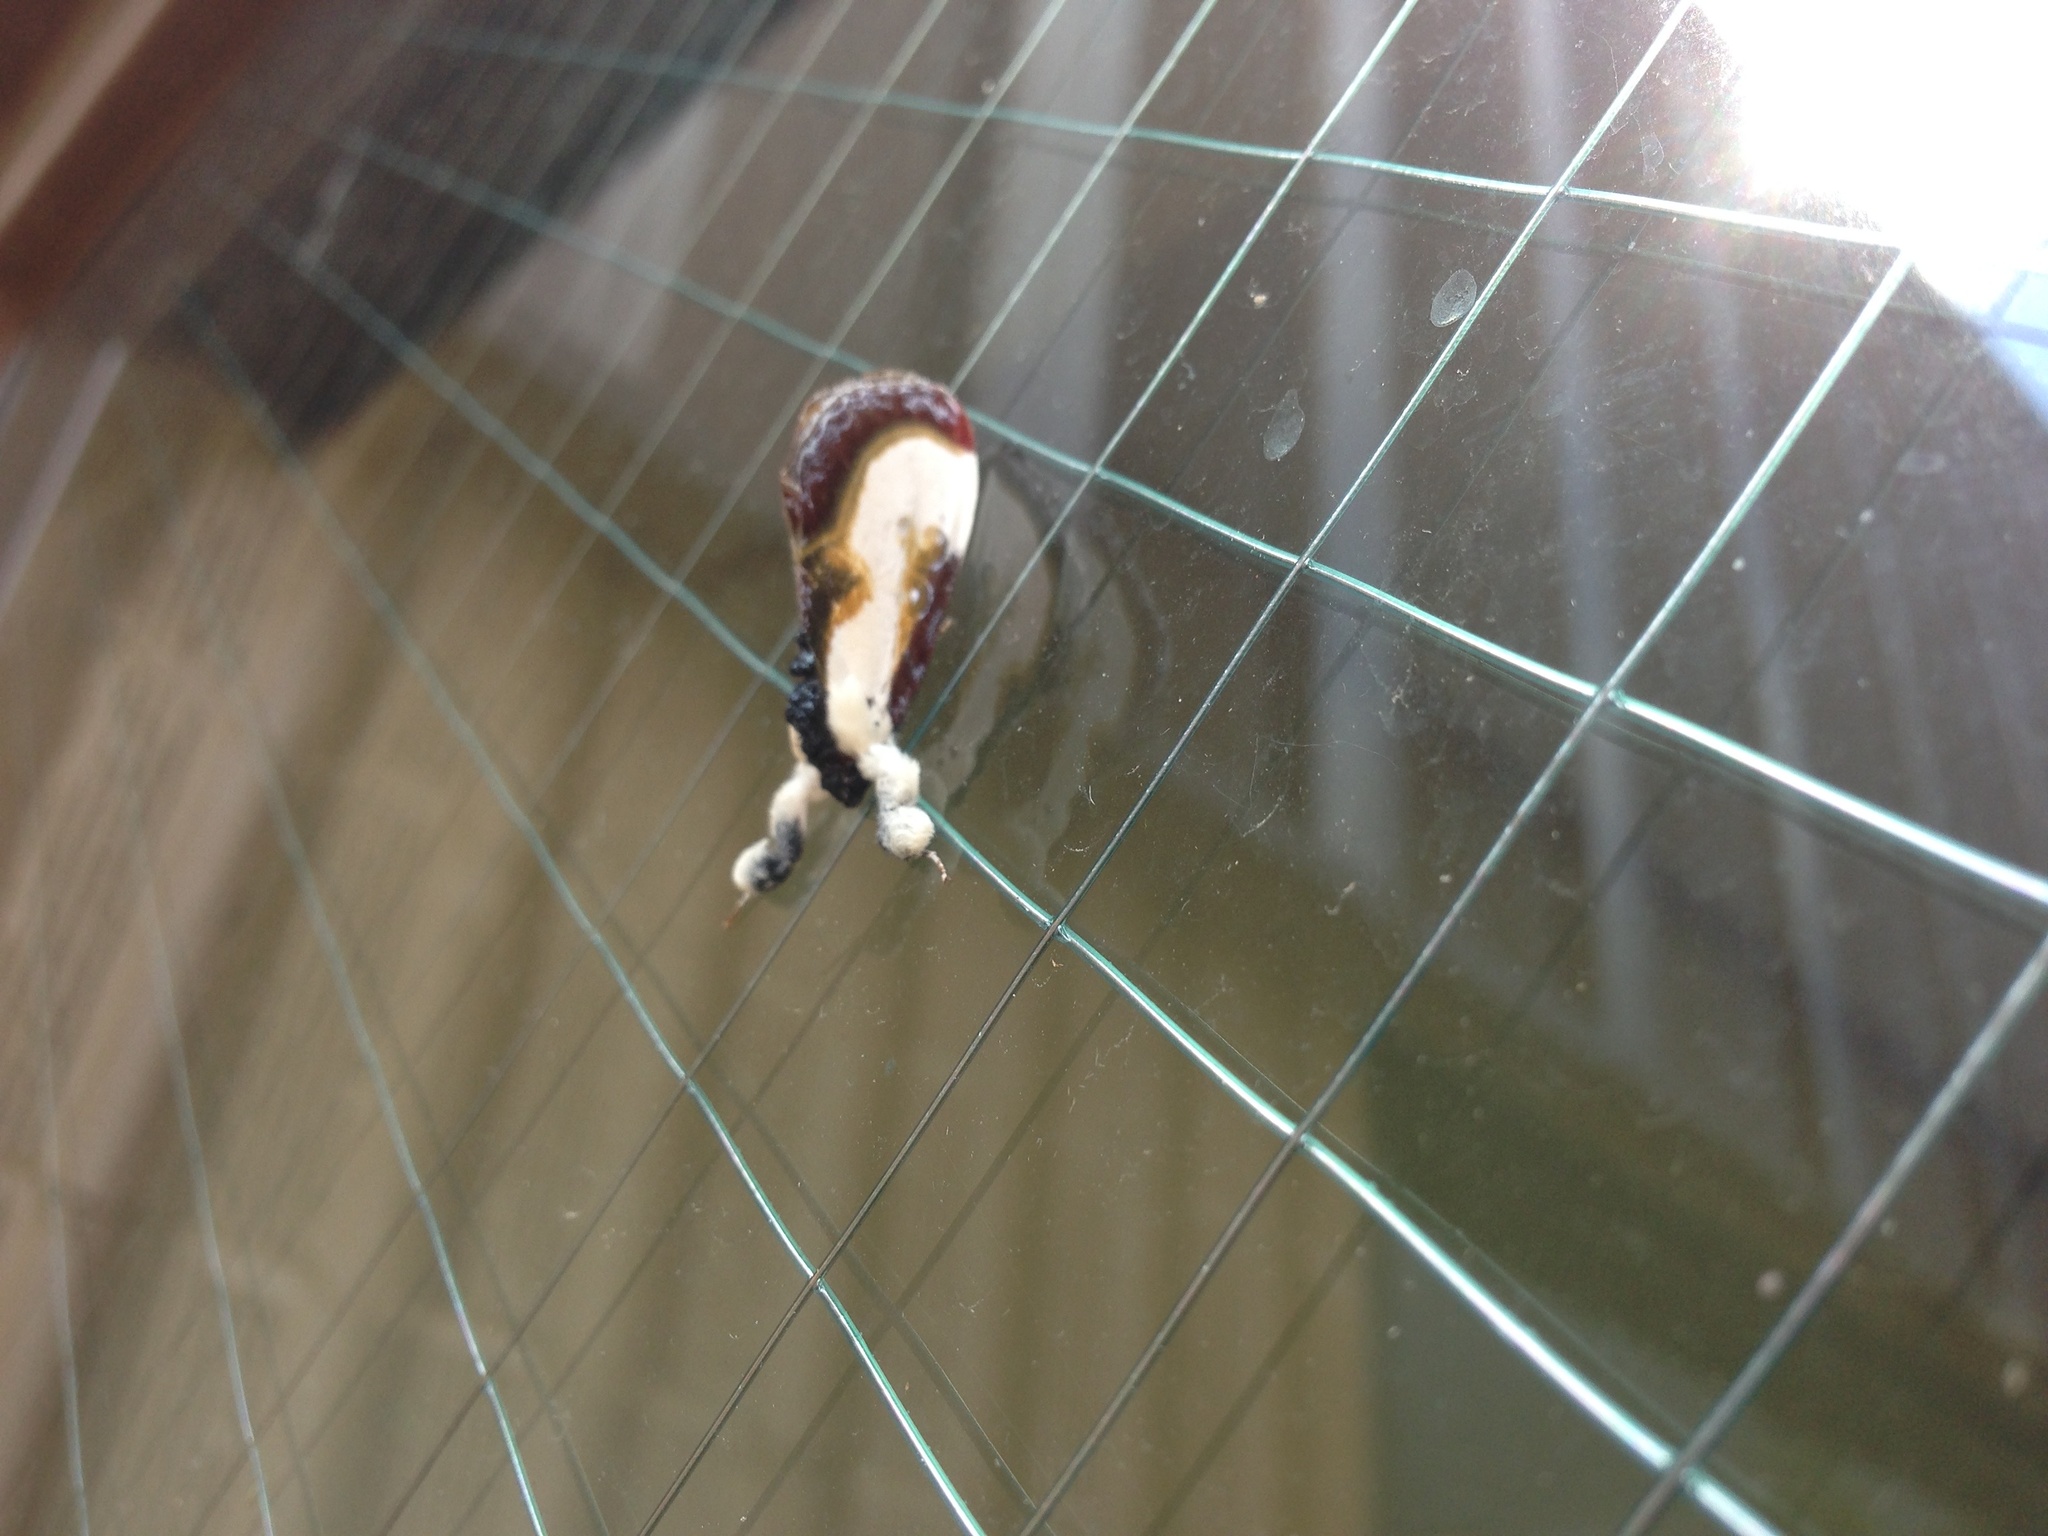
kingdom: Animalia
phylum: Arthropoda
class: Insecta
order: Lepidoptera
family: Noctuidae
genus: Eudryas
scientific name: Eudryas grata
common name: Beautiful wood-nymph
